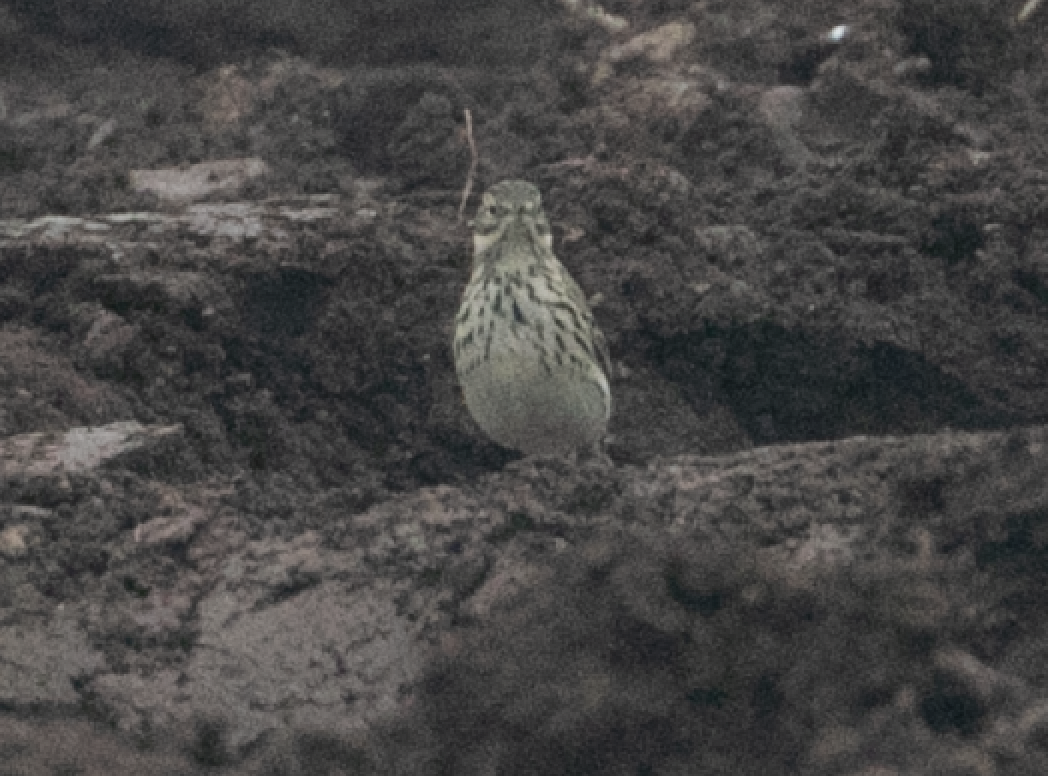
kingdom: Animalia
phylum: Chordata
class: Aves
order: Passeriformes
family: Motacillidae
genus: Anthus
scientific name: Anthus pratensis
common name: Meadow pipit
